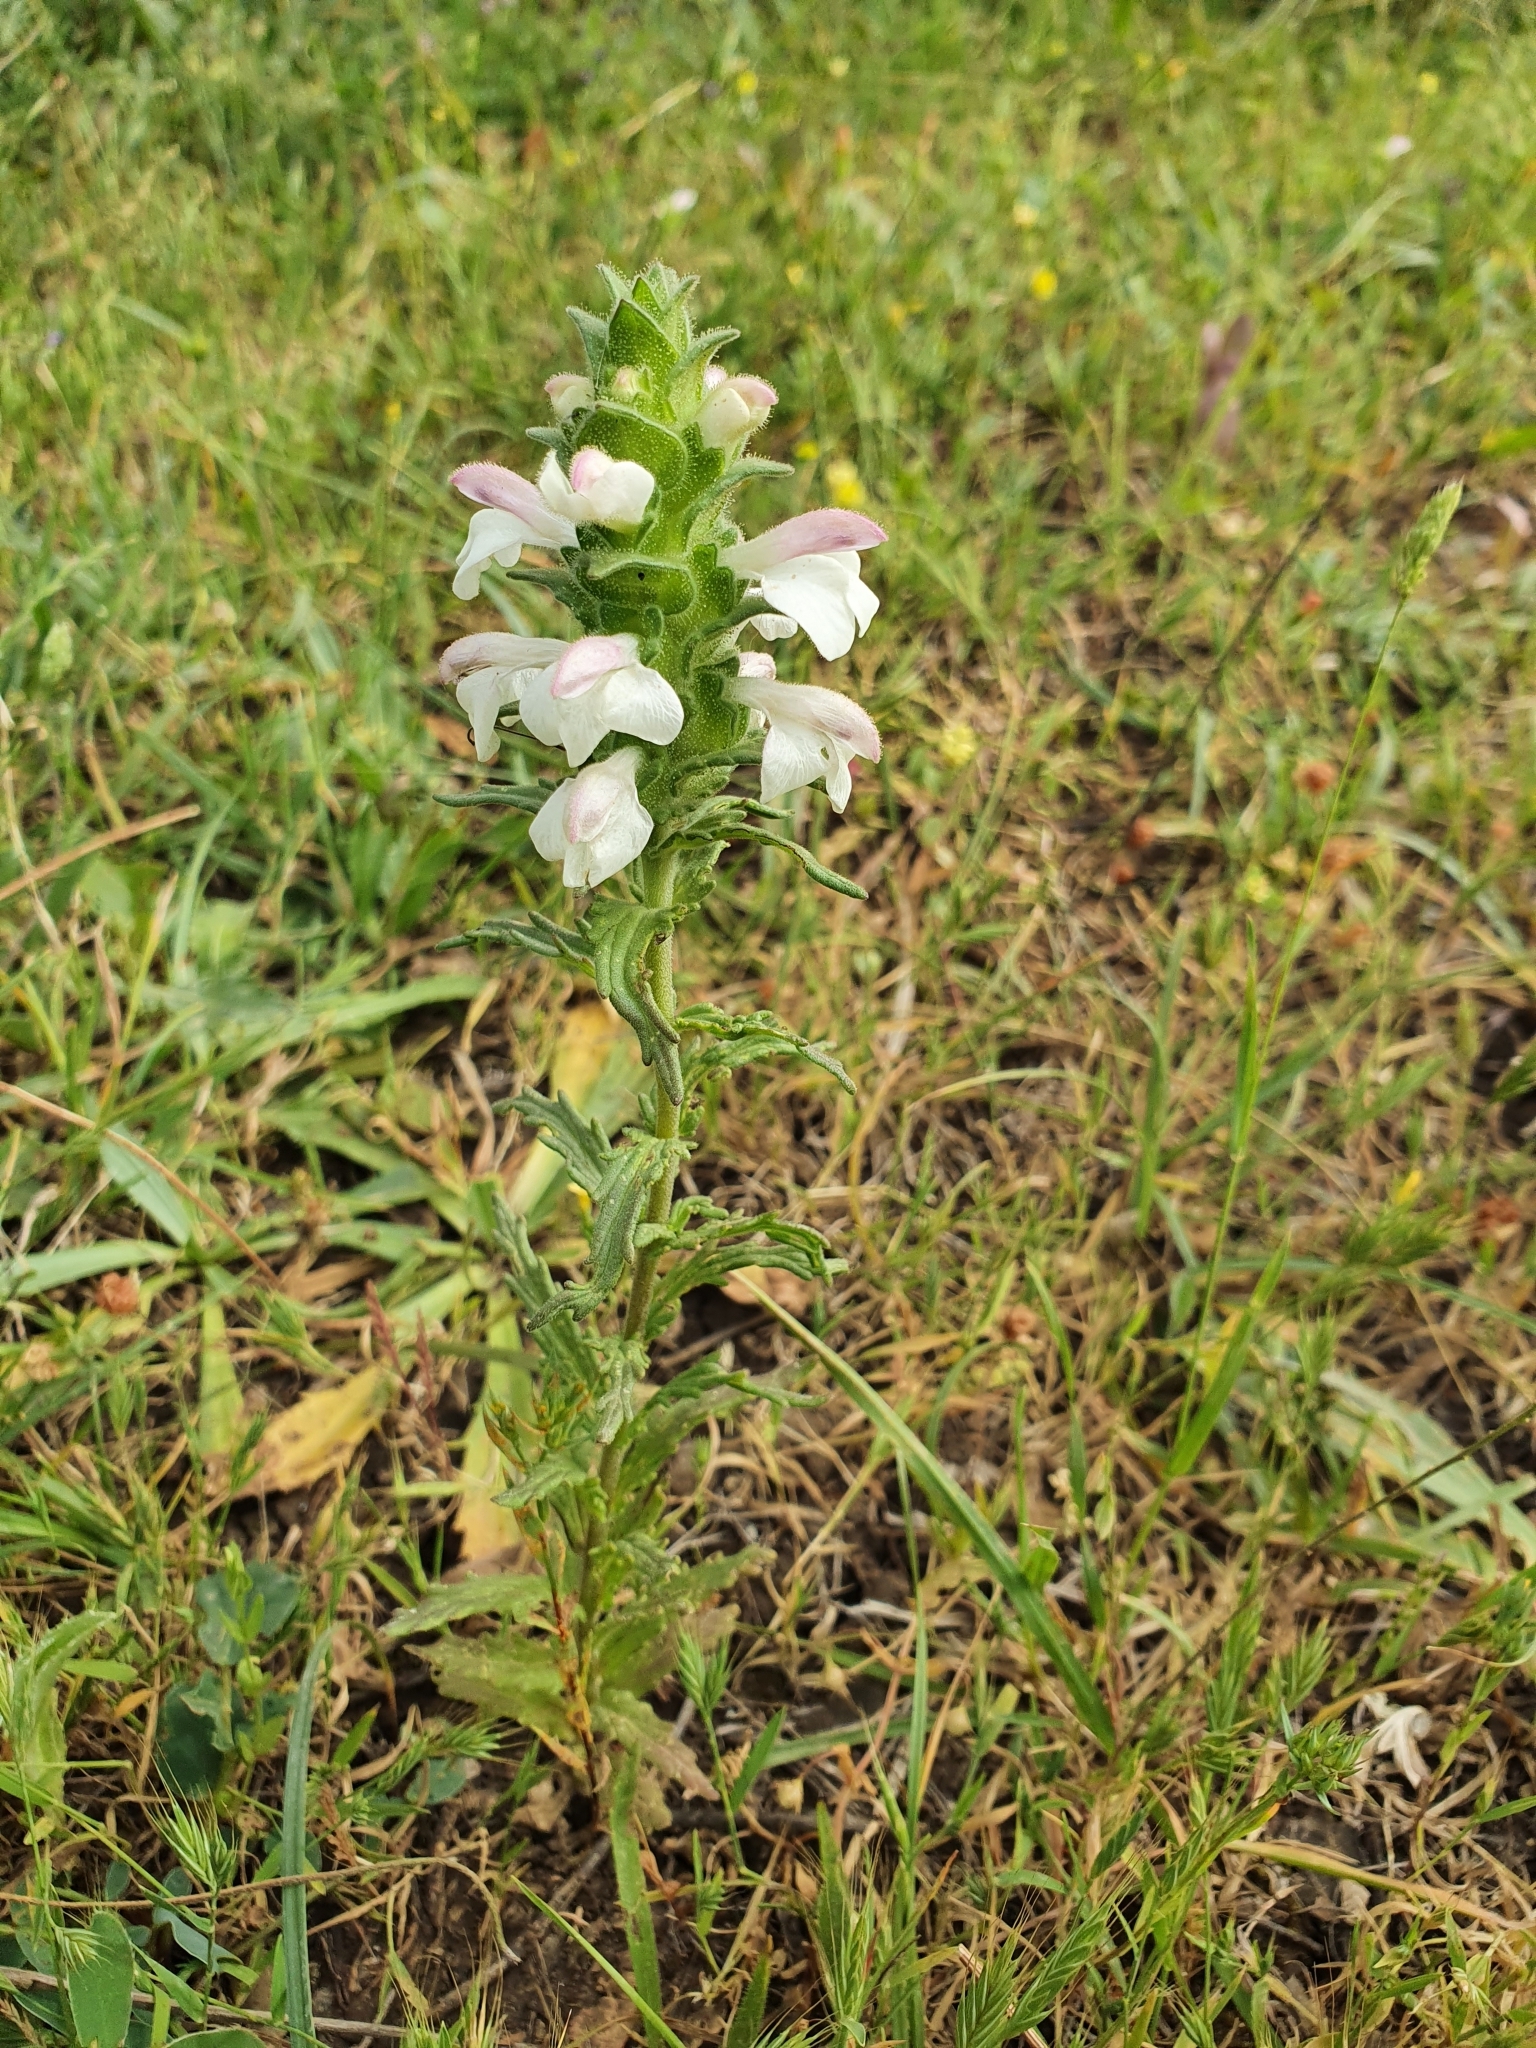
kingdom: Plantae
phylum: Tracheophyta
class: Magnoliopsida
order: Lamiales
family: Orobanchaceae
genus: Bellardia
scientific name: Bellardia trixago
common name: Mediterranean lineseed
